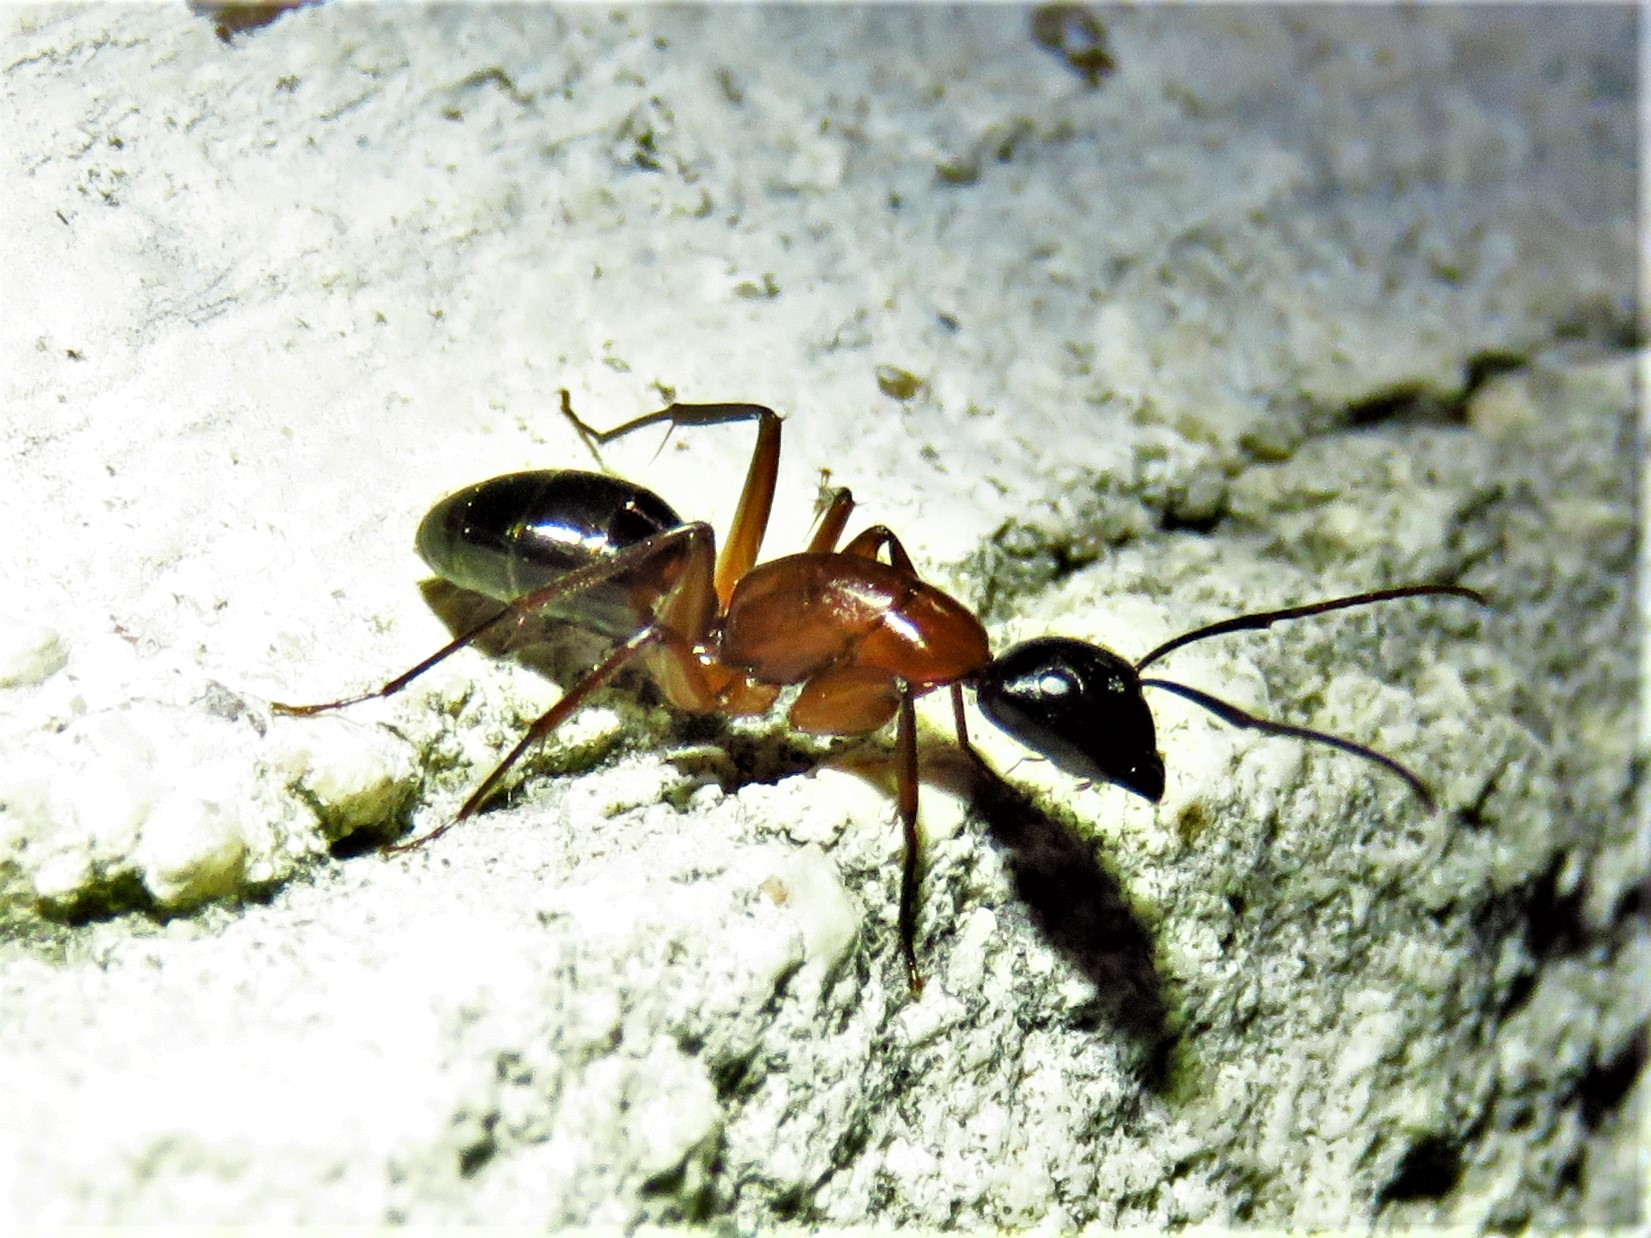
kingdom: Animalia
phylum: Arthropoda
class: Insecta
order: Hymenoptera
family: Formicidae
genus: Camponotus
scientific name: Camponotus texanus
